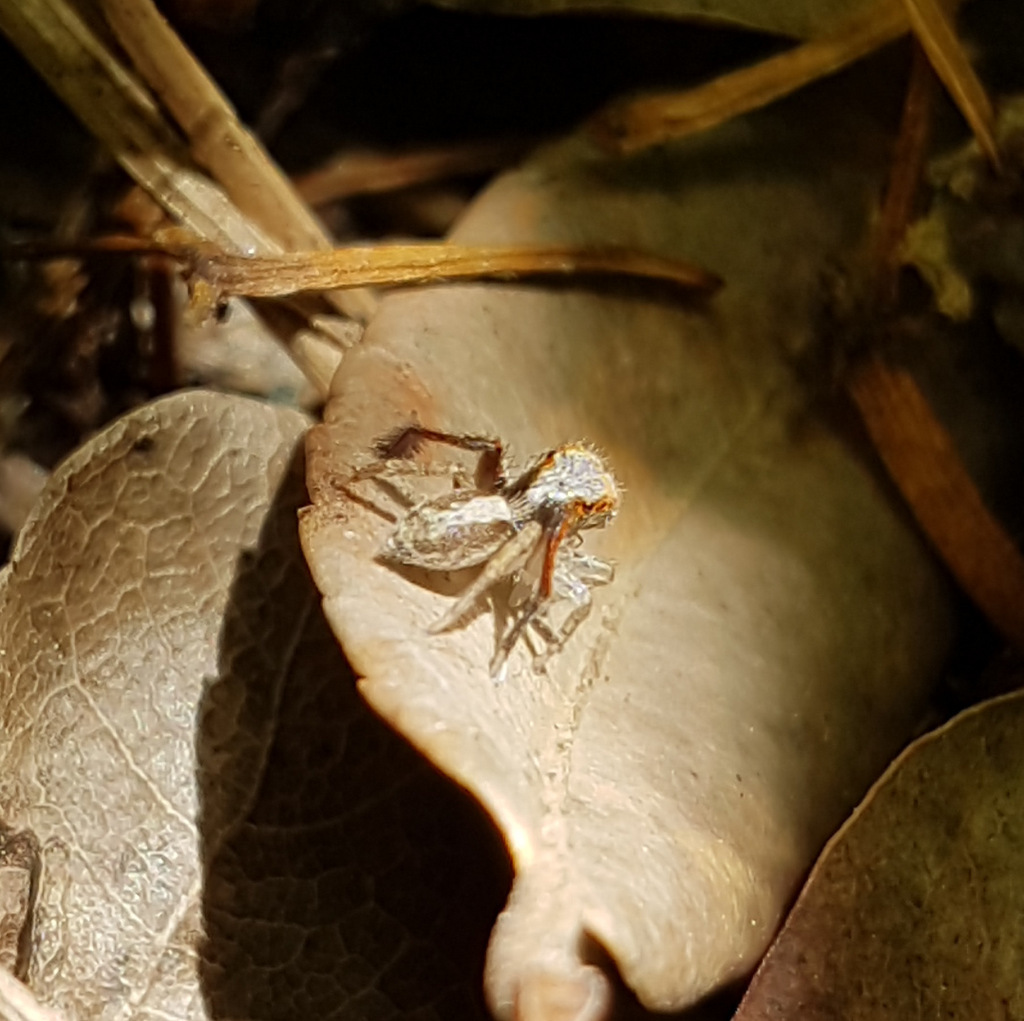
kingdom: Animalia
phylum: Arthropoda
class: Arachnida
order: Araneae
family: Salticidae
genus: Saitis
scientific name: Saitis barbipes
